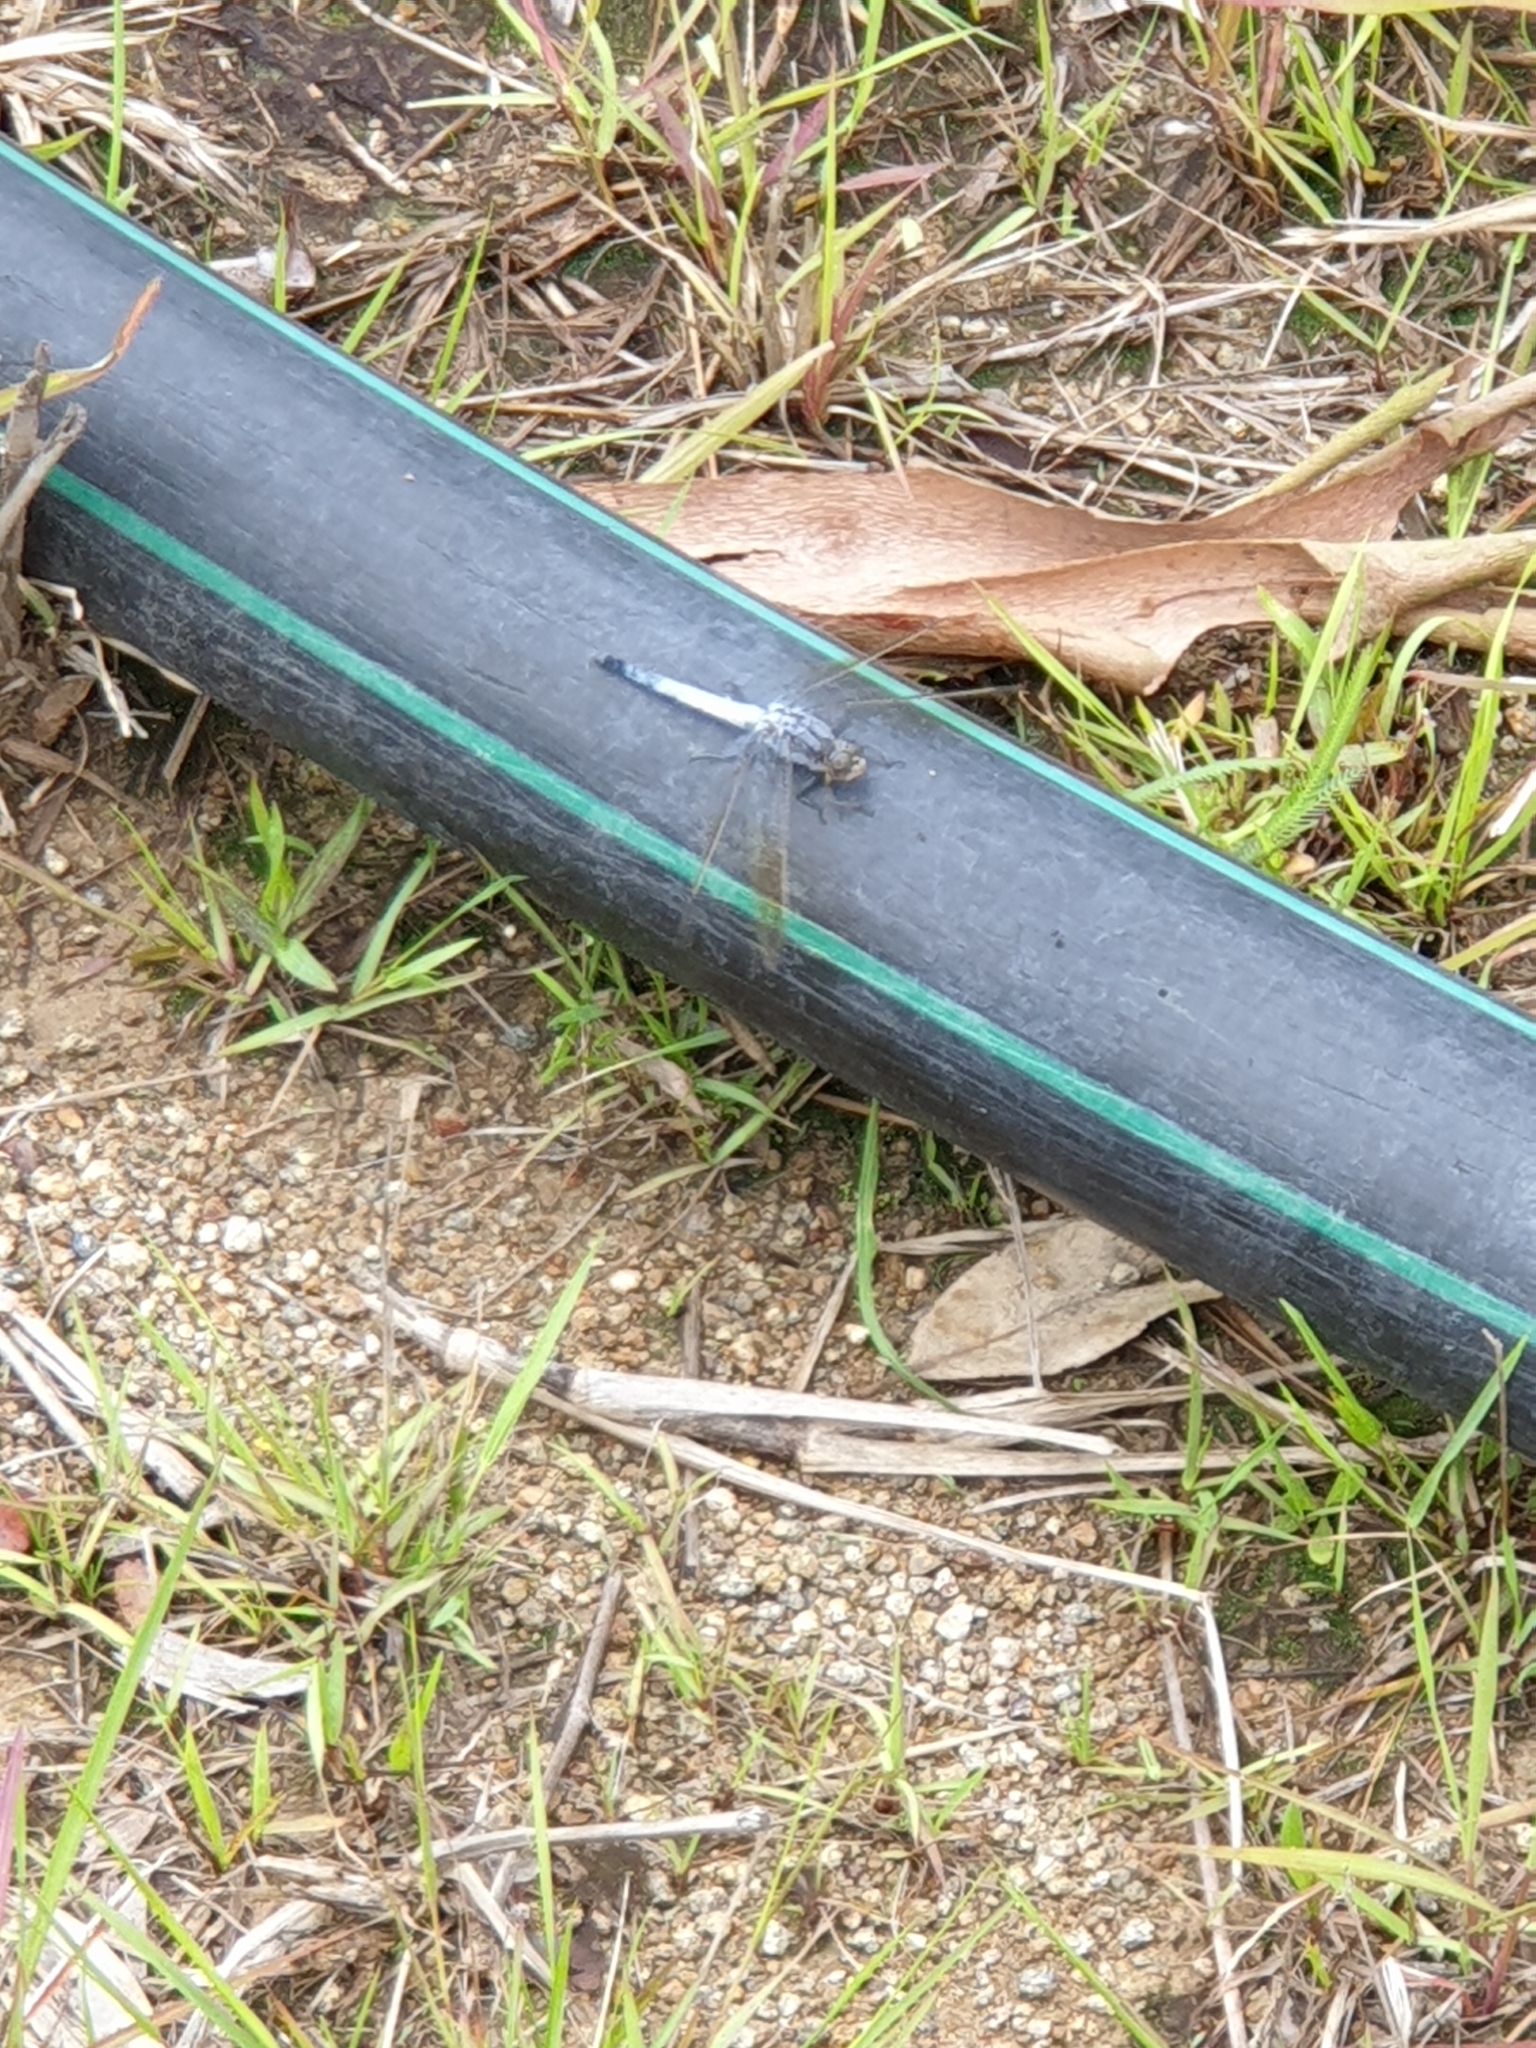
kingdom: Animalia
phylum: Arthropoda
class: Insecta
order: Odonata
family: Libellulidae
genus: Orthetrum
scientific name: Orthetrum caledonicum
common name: Blue skimmer
